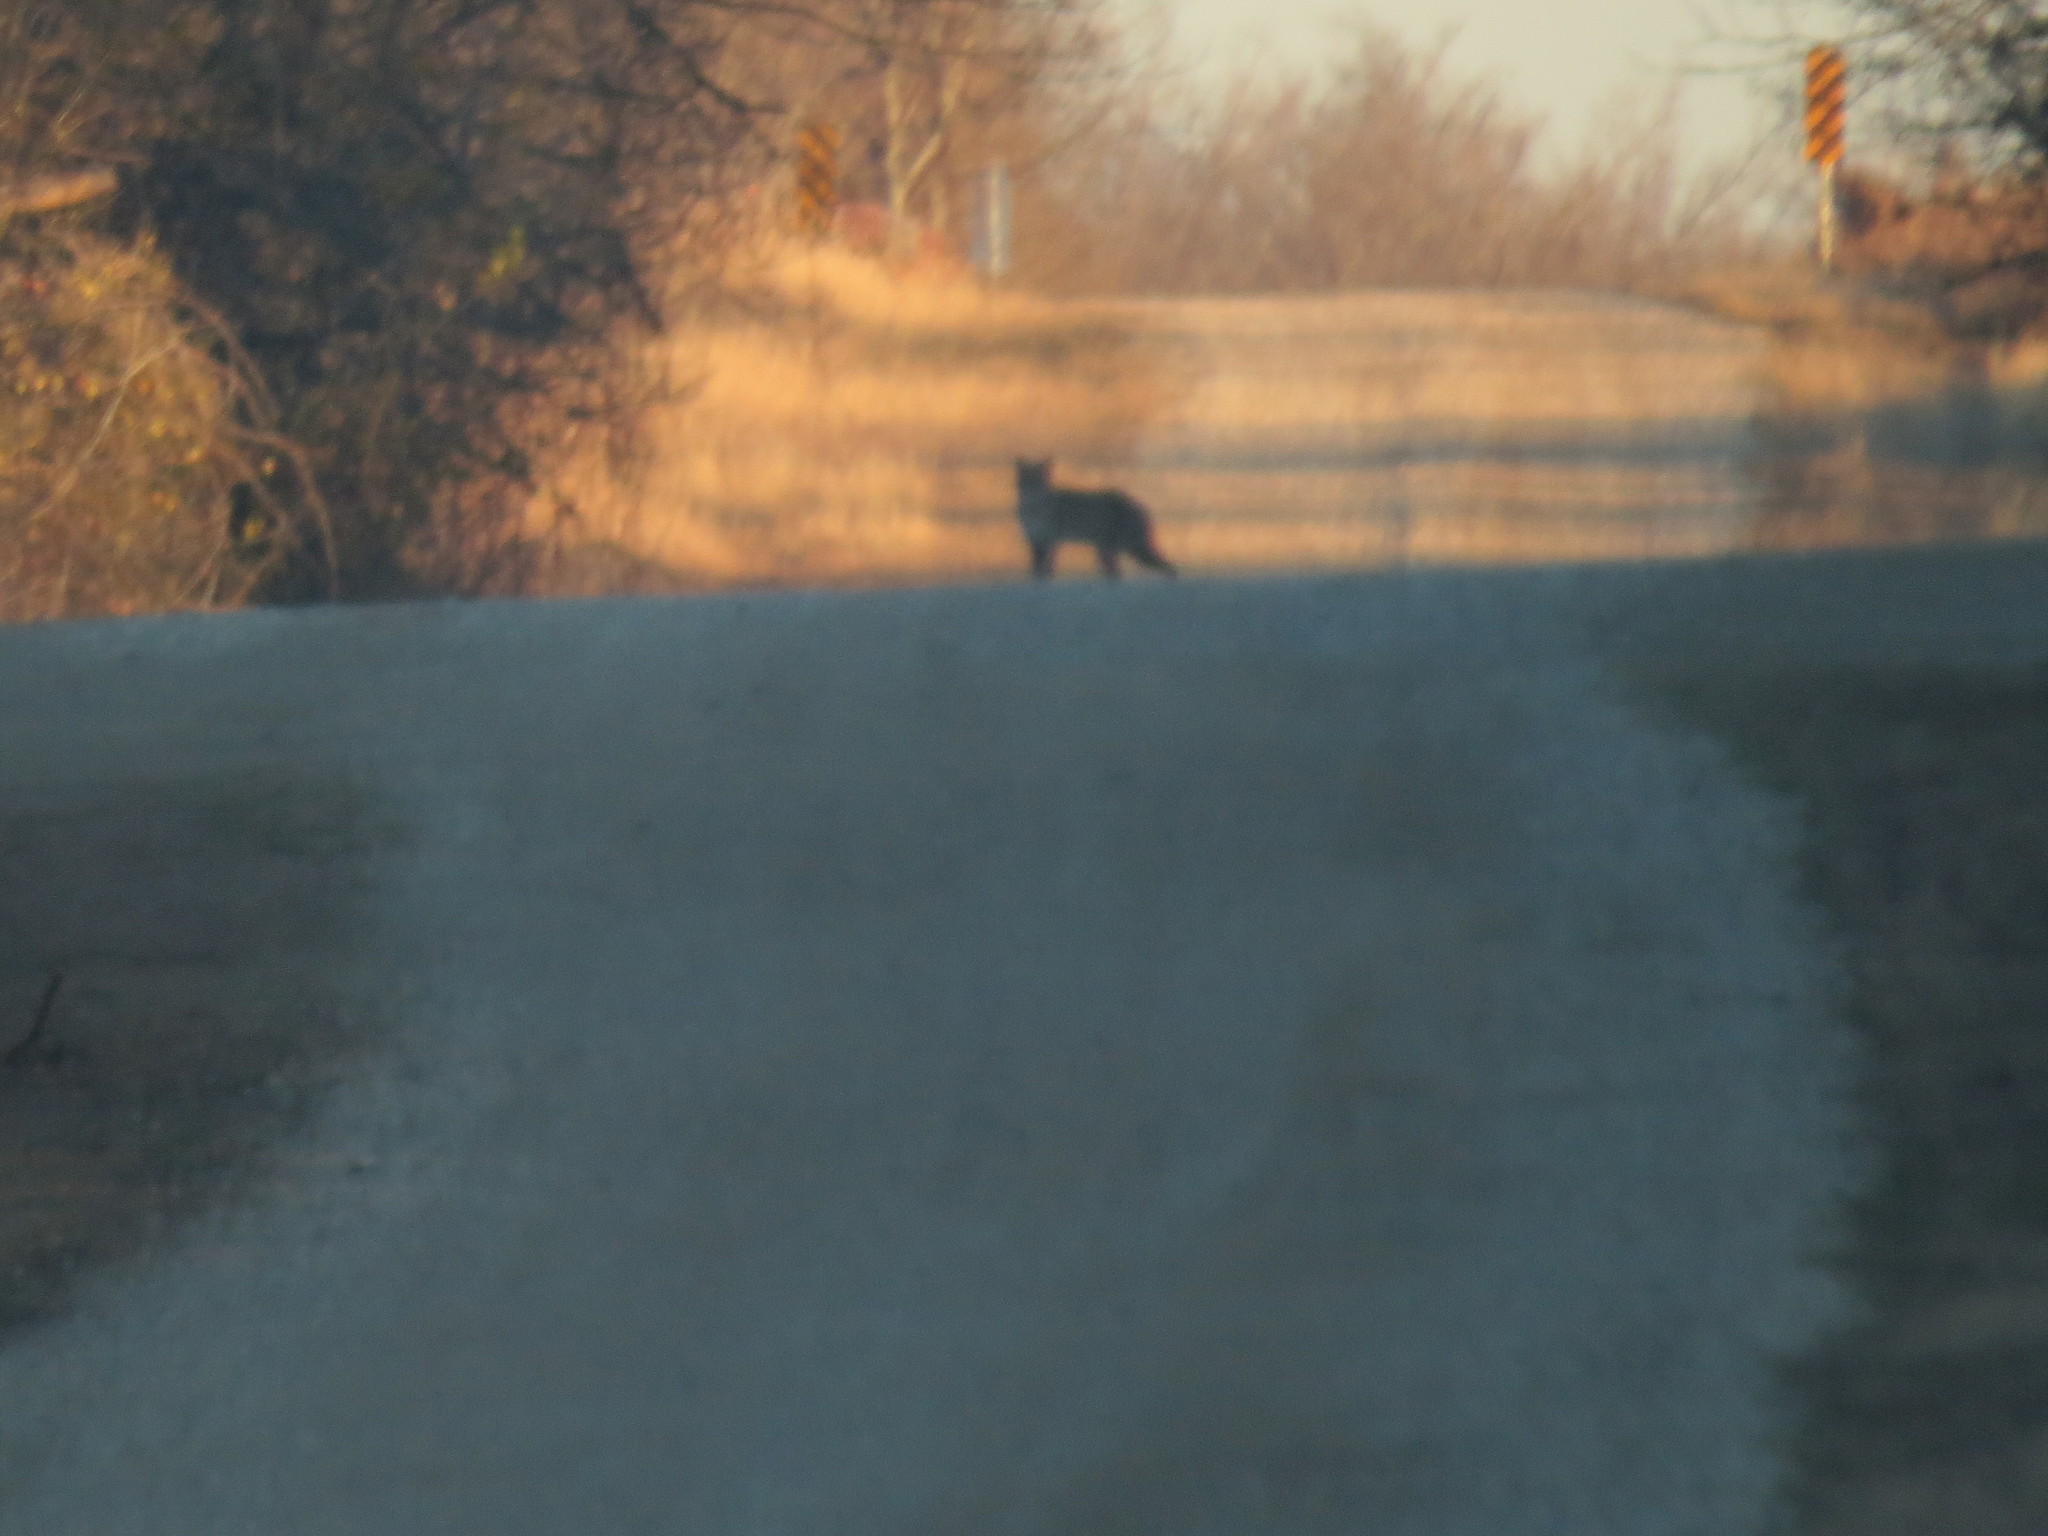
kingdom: Animalia
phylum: Chordata
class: Mammalia
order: Carnivora
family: Felidae
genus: Lynx
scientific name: Lynx rufus
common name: Bobcat
